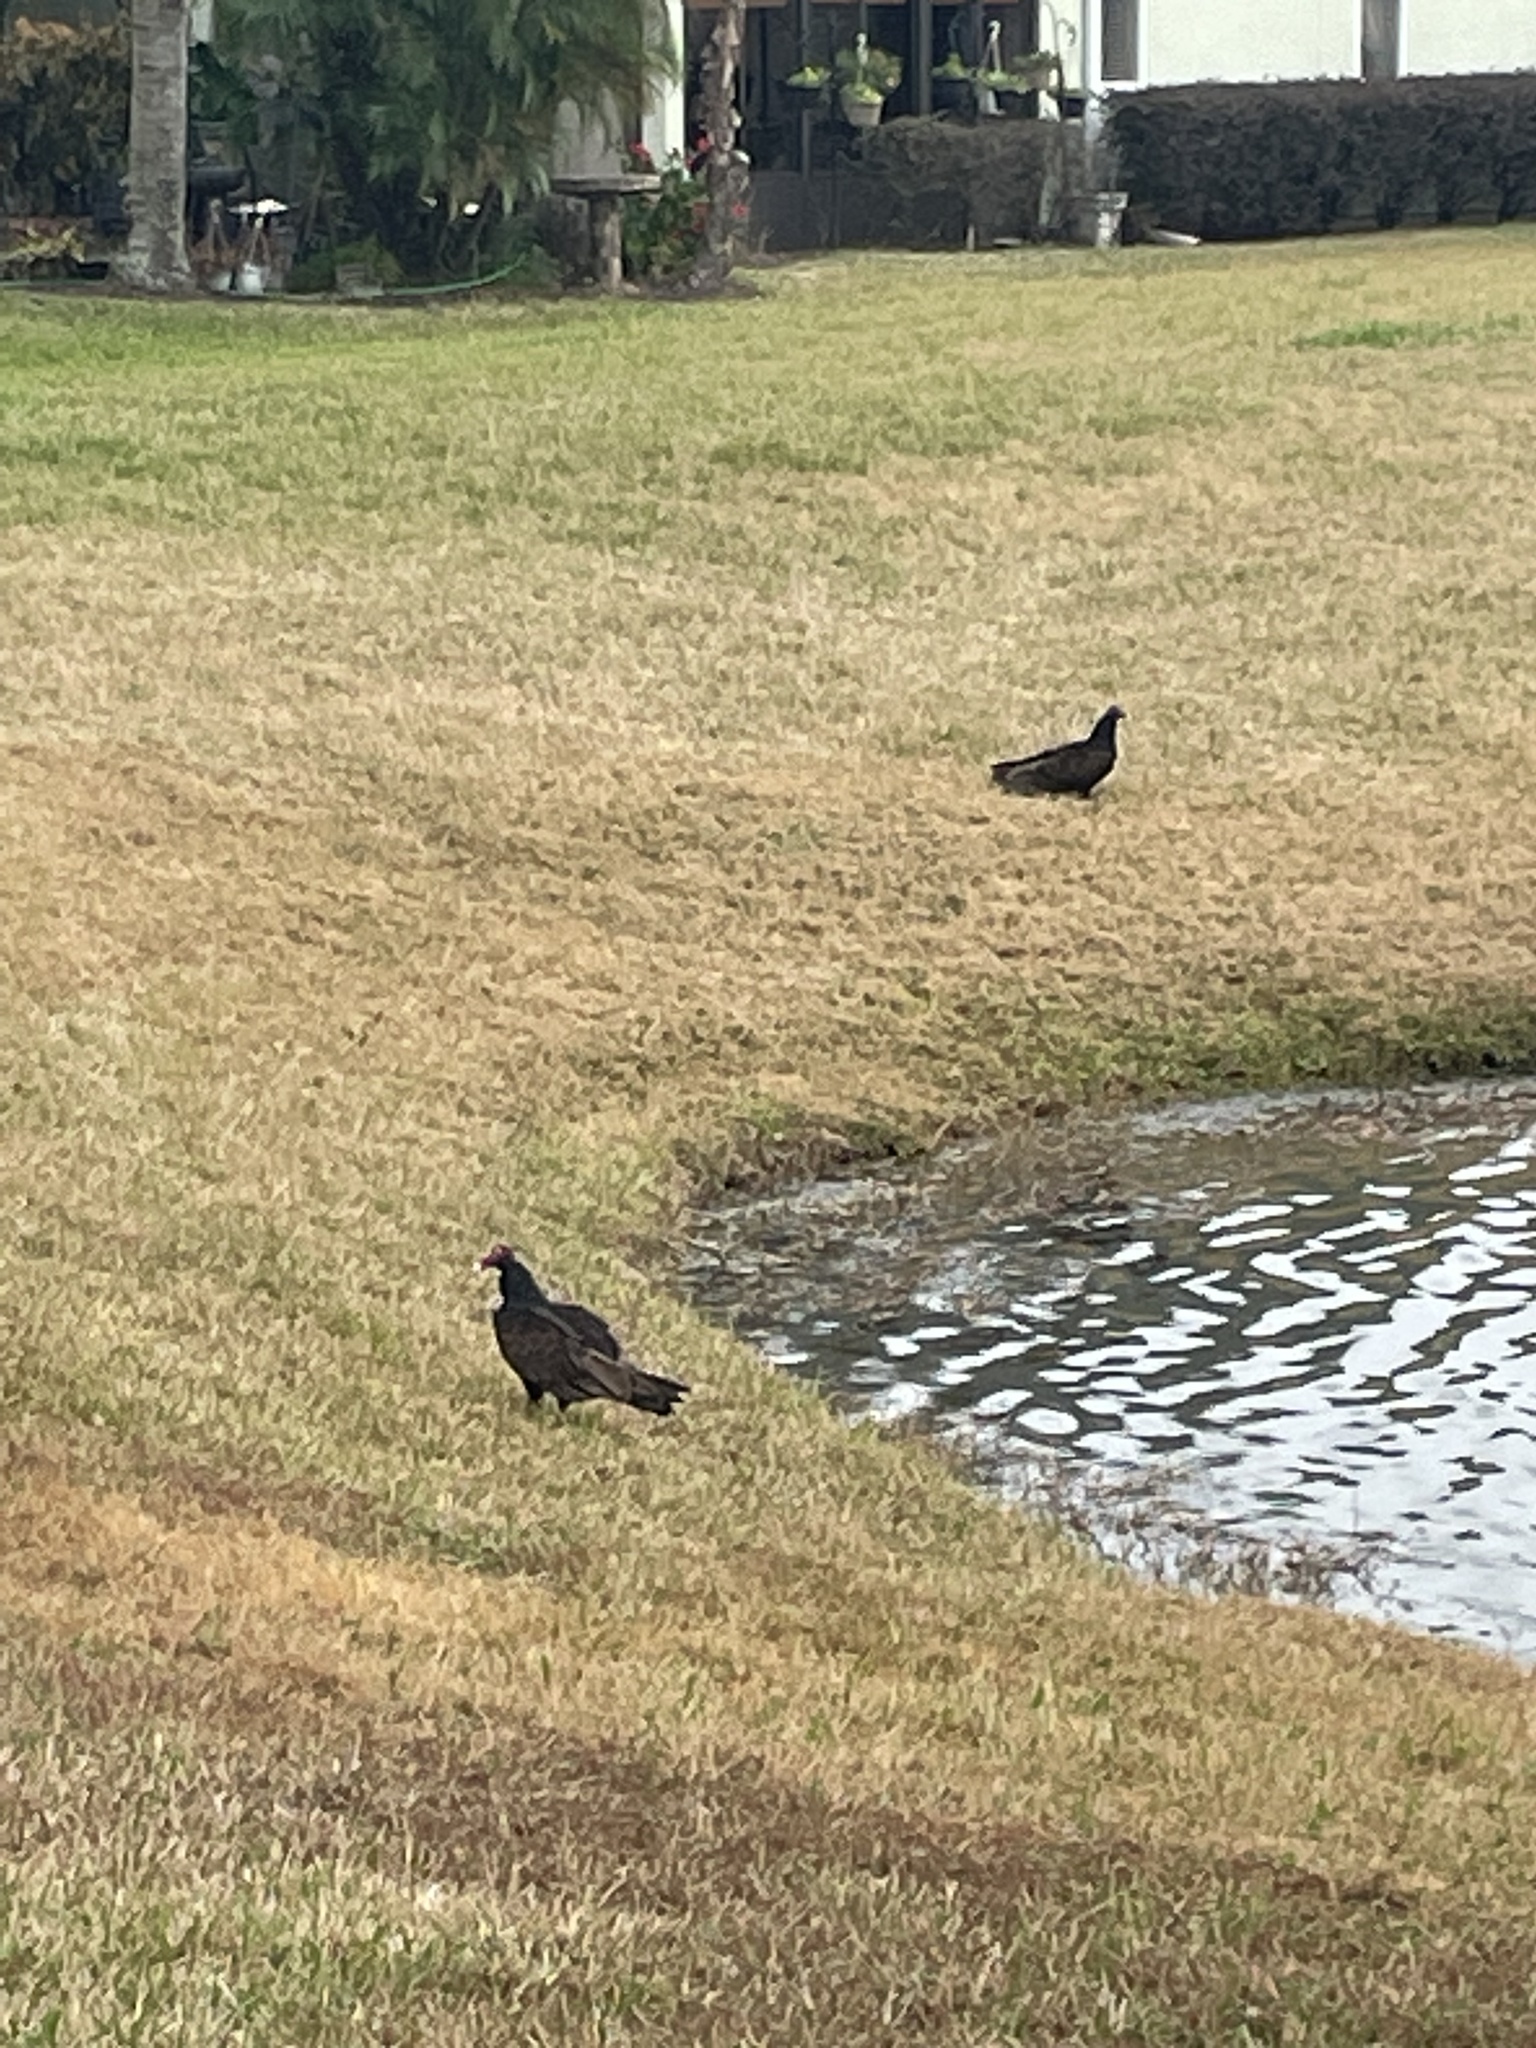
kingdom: Animalia
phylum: Chordata
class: Aves
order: Accipitriformes
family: Cathartidae
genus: Cathartes
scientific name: Cathartes aura
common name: Turkey vulture
